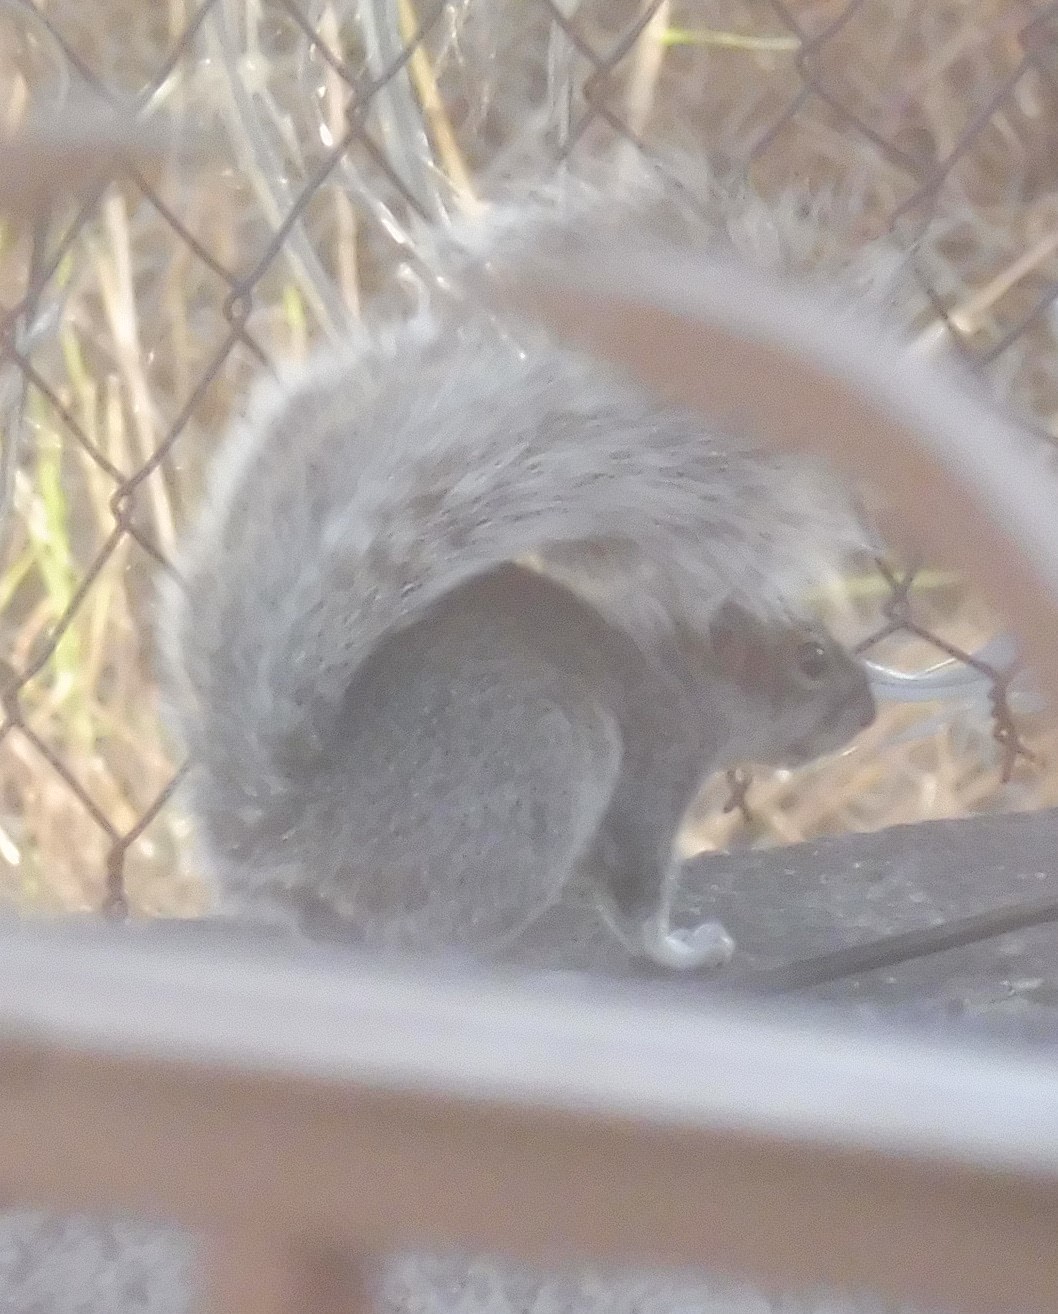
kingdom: Animalia
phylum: Chordata
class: Mammalia
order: Rodentia
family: Sciuridae
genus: Sciurus
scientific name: Sciurus aureogaster
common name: Red-bellied squirrel
